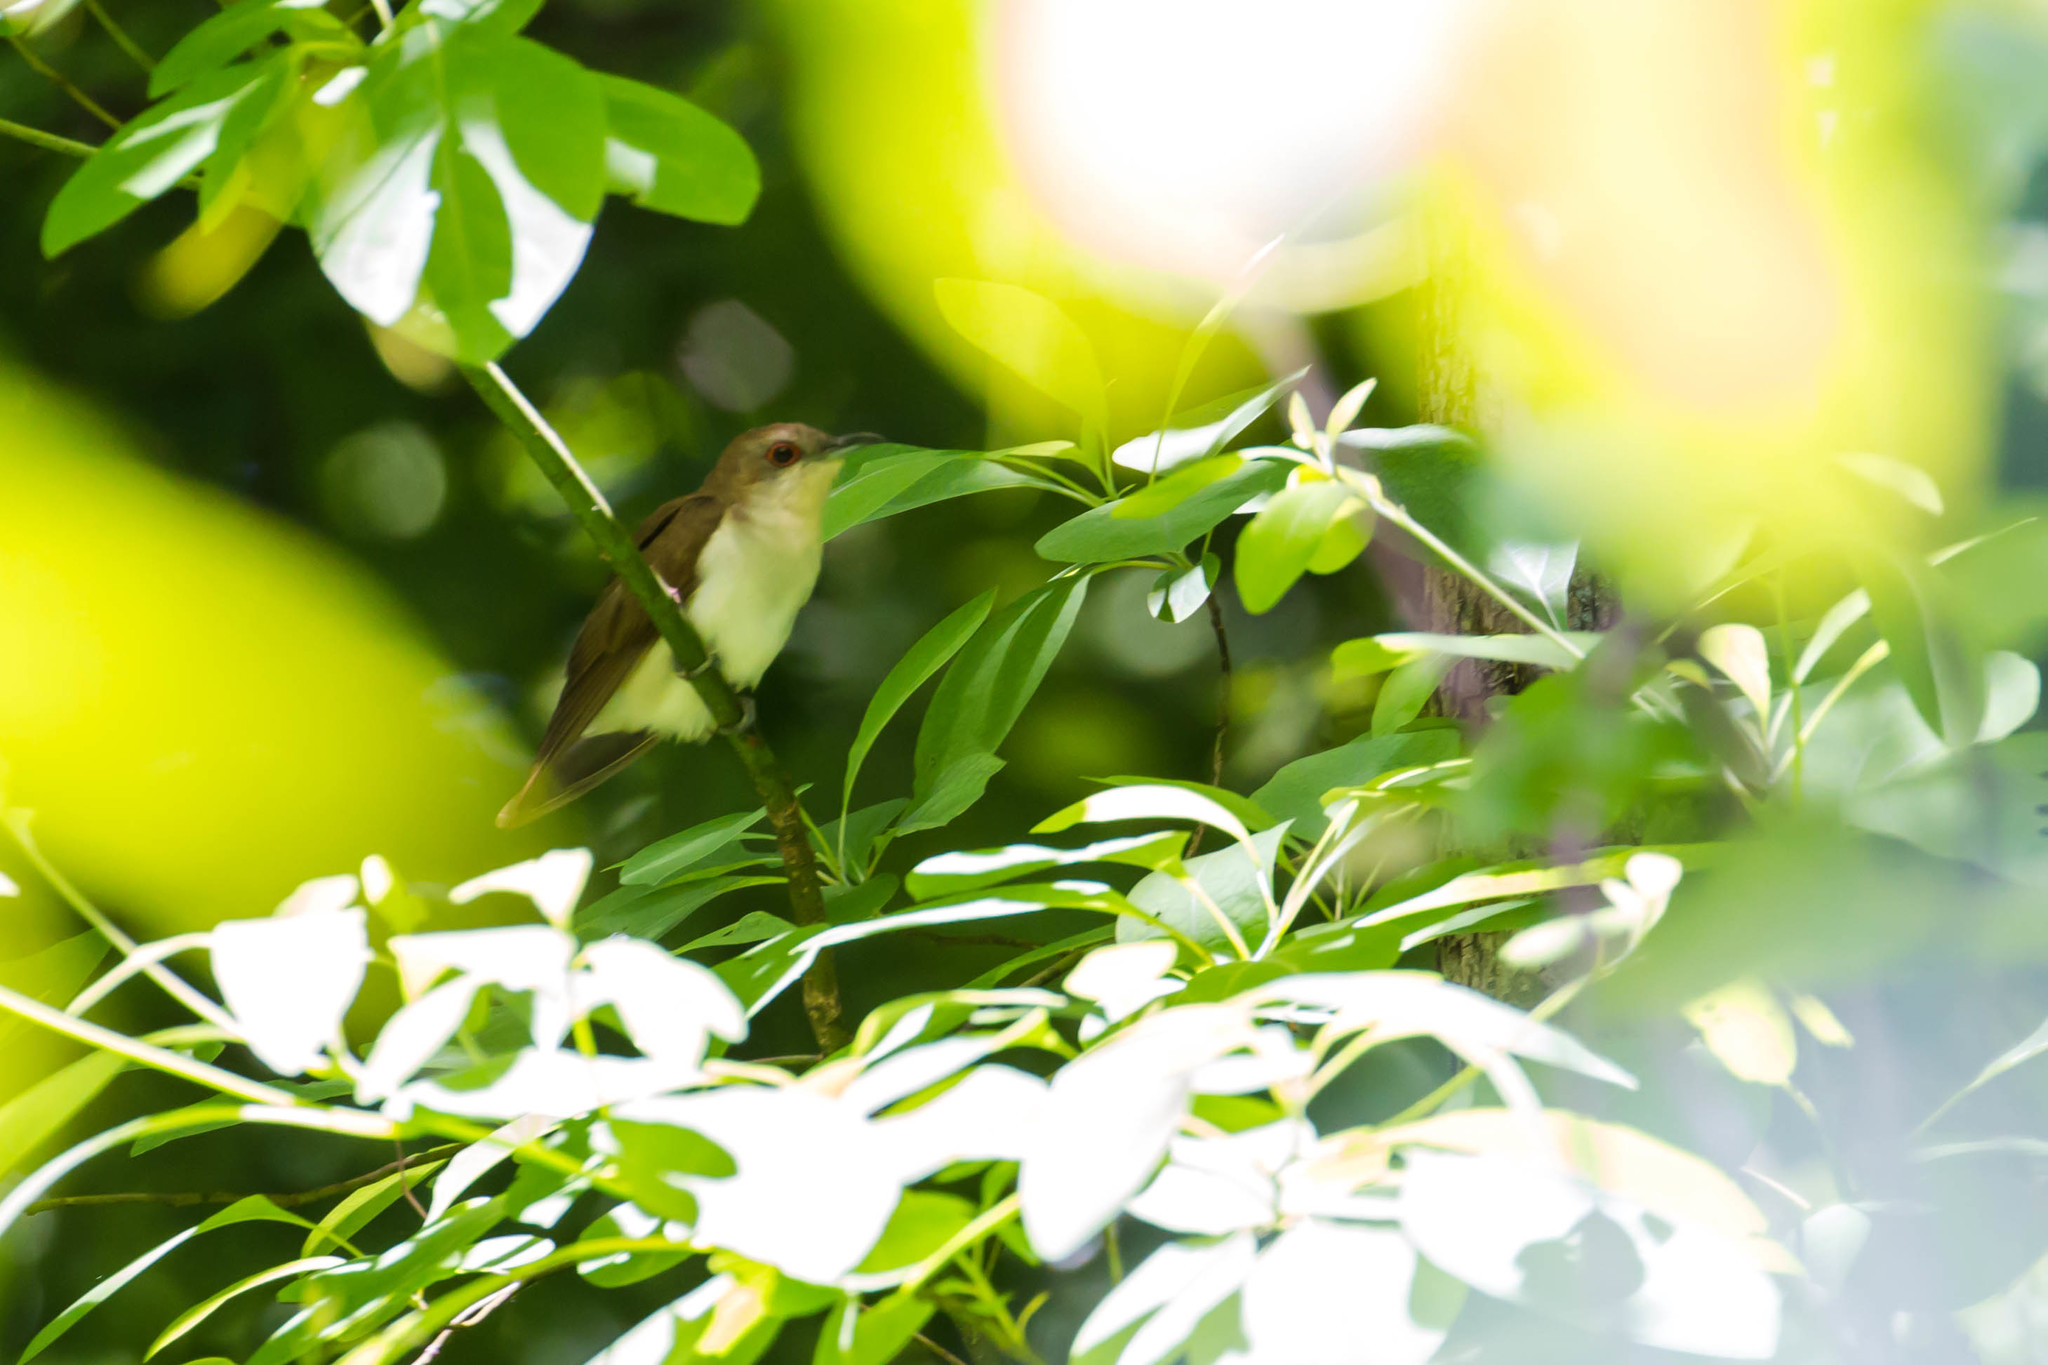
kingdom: Animalia
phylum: Chordata
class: Aves
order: Cuculiformes
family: Cuculidae
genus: Coccyzus
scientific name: Coccyzus erythropthalmus
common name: Black-billed cuckoo
